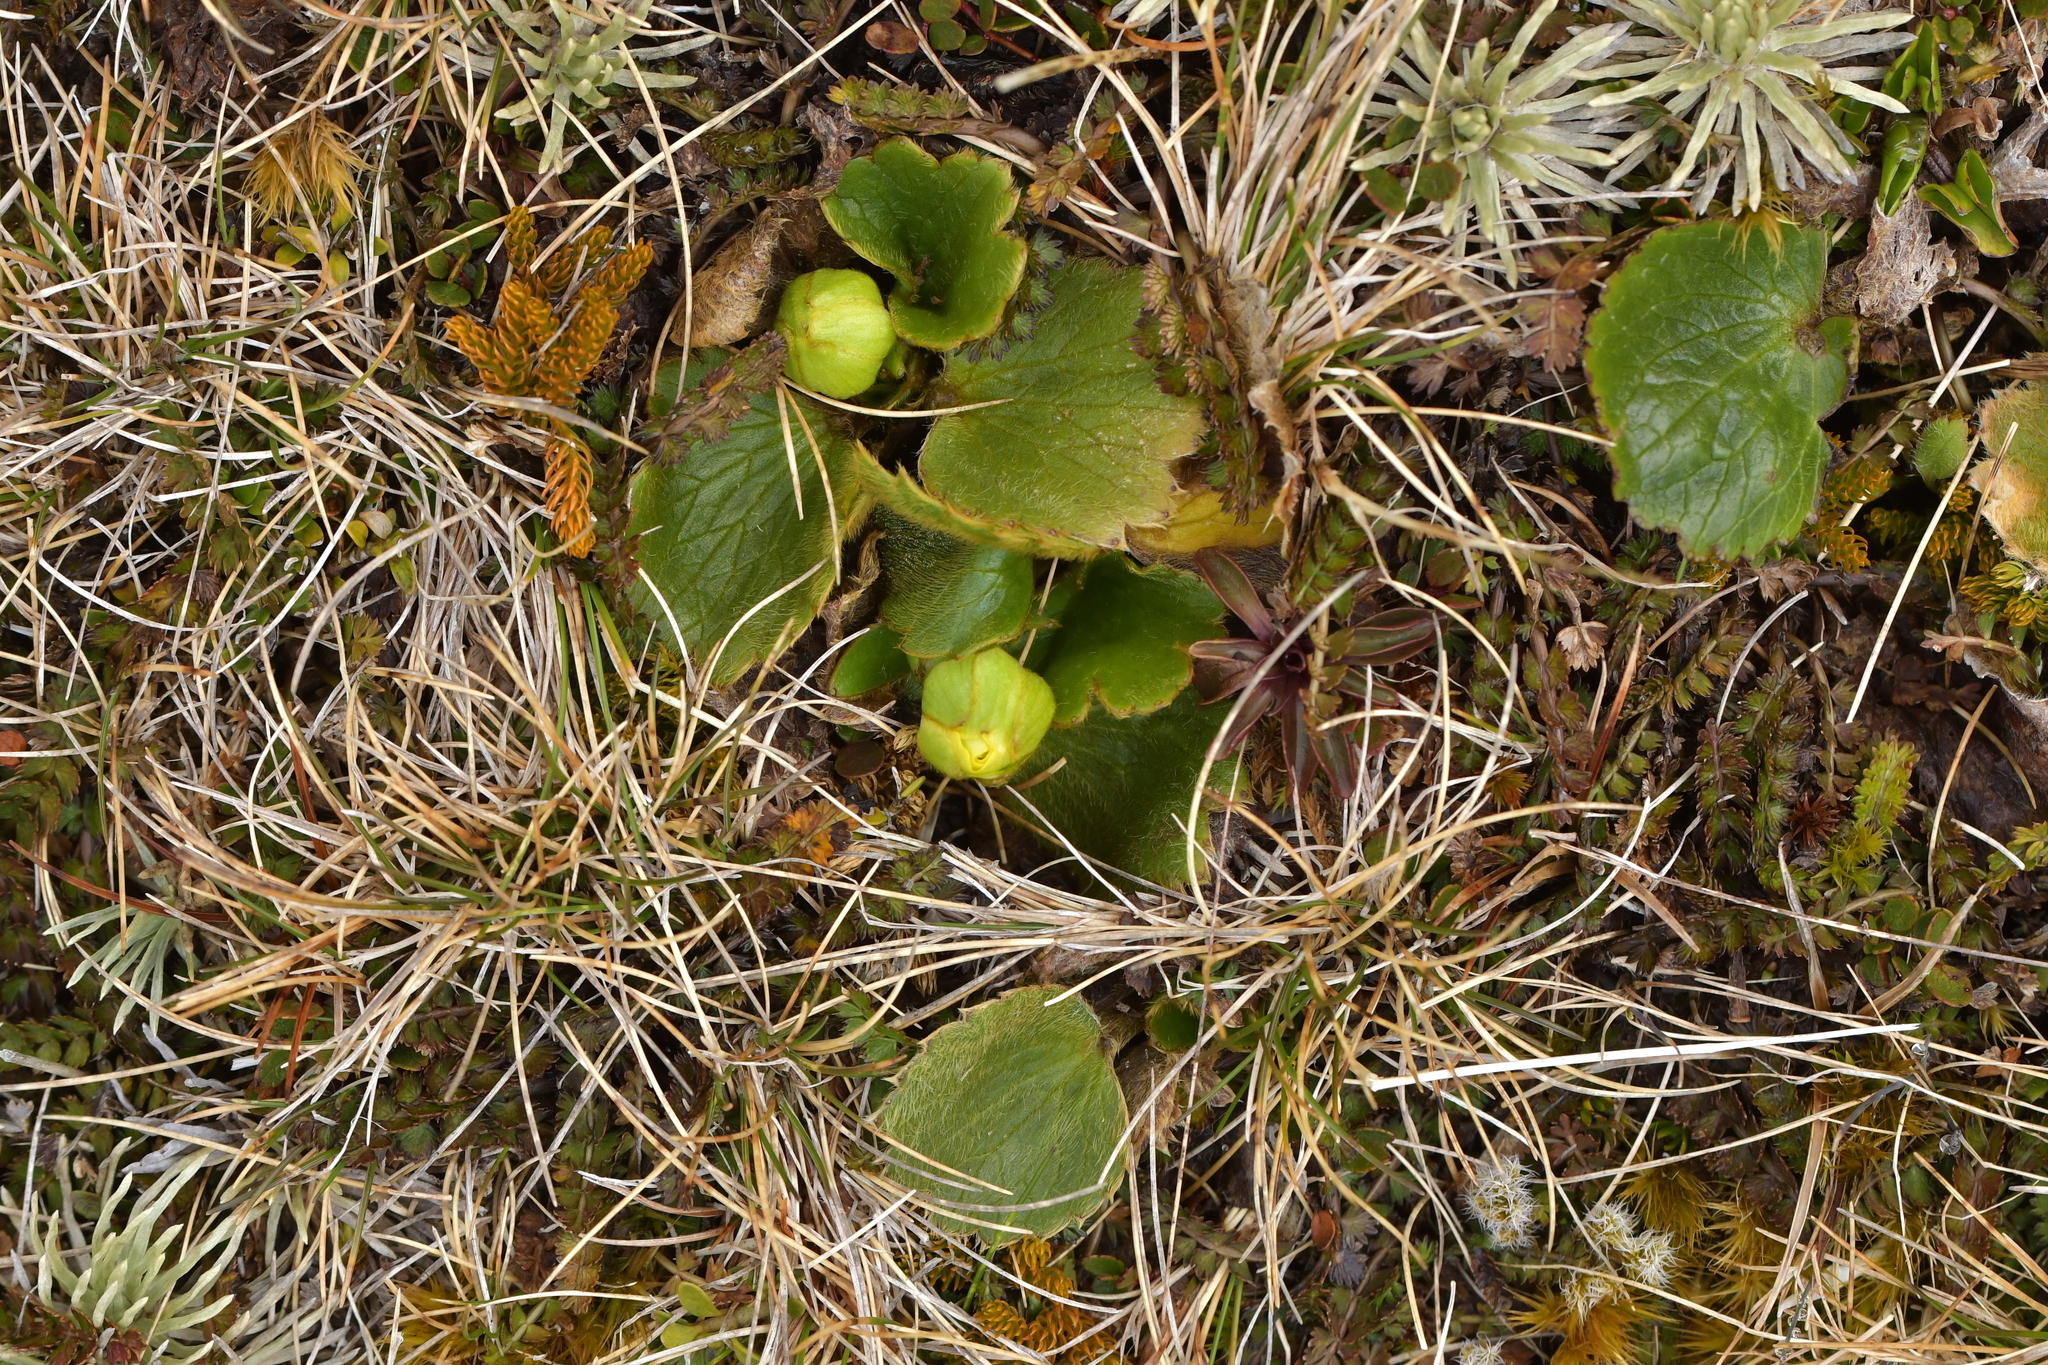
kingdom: Plantae
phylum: Tracheophyta
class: Magnoliopsida
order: Ranunculales
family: Ranunculaceae
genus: Ranunculus
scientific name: Ranunculus insignis
